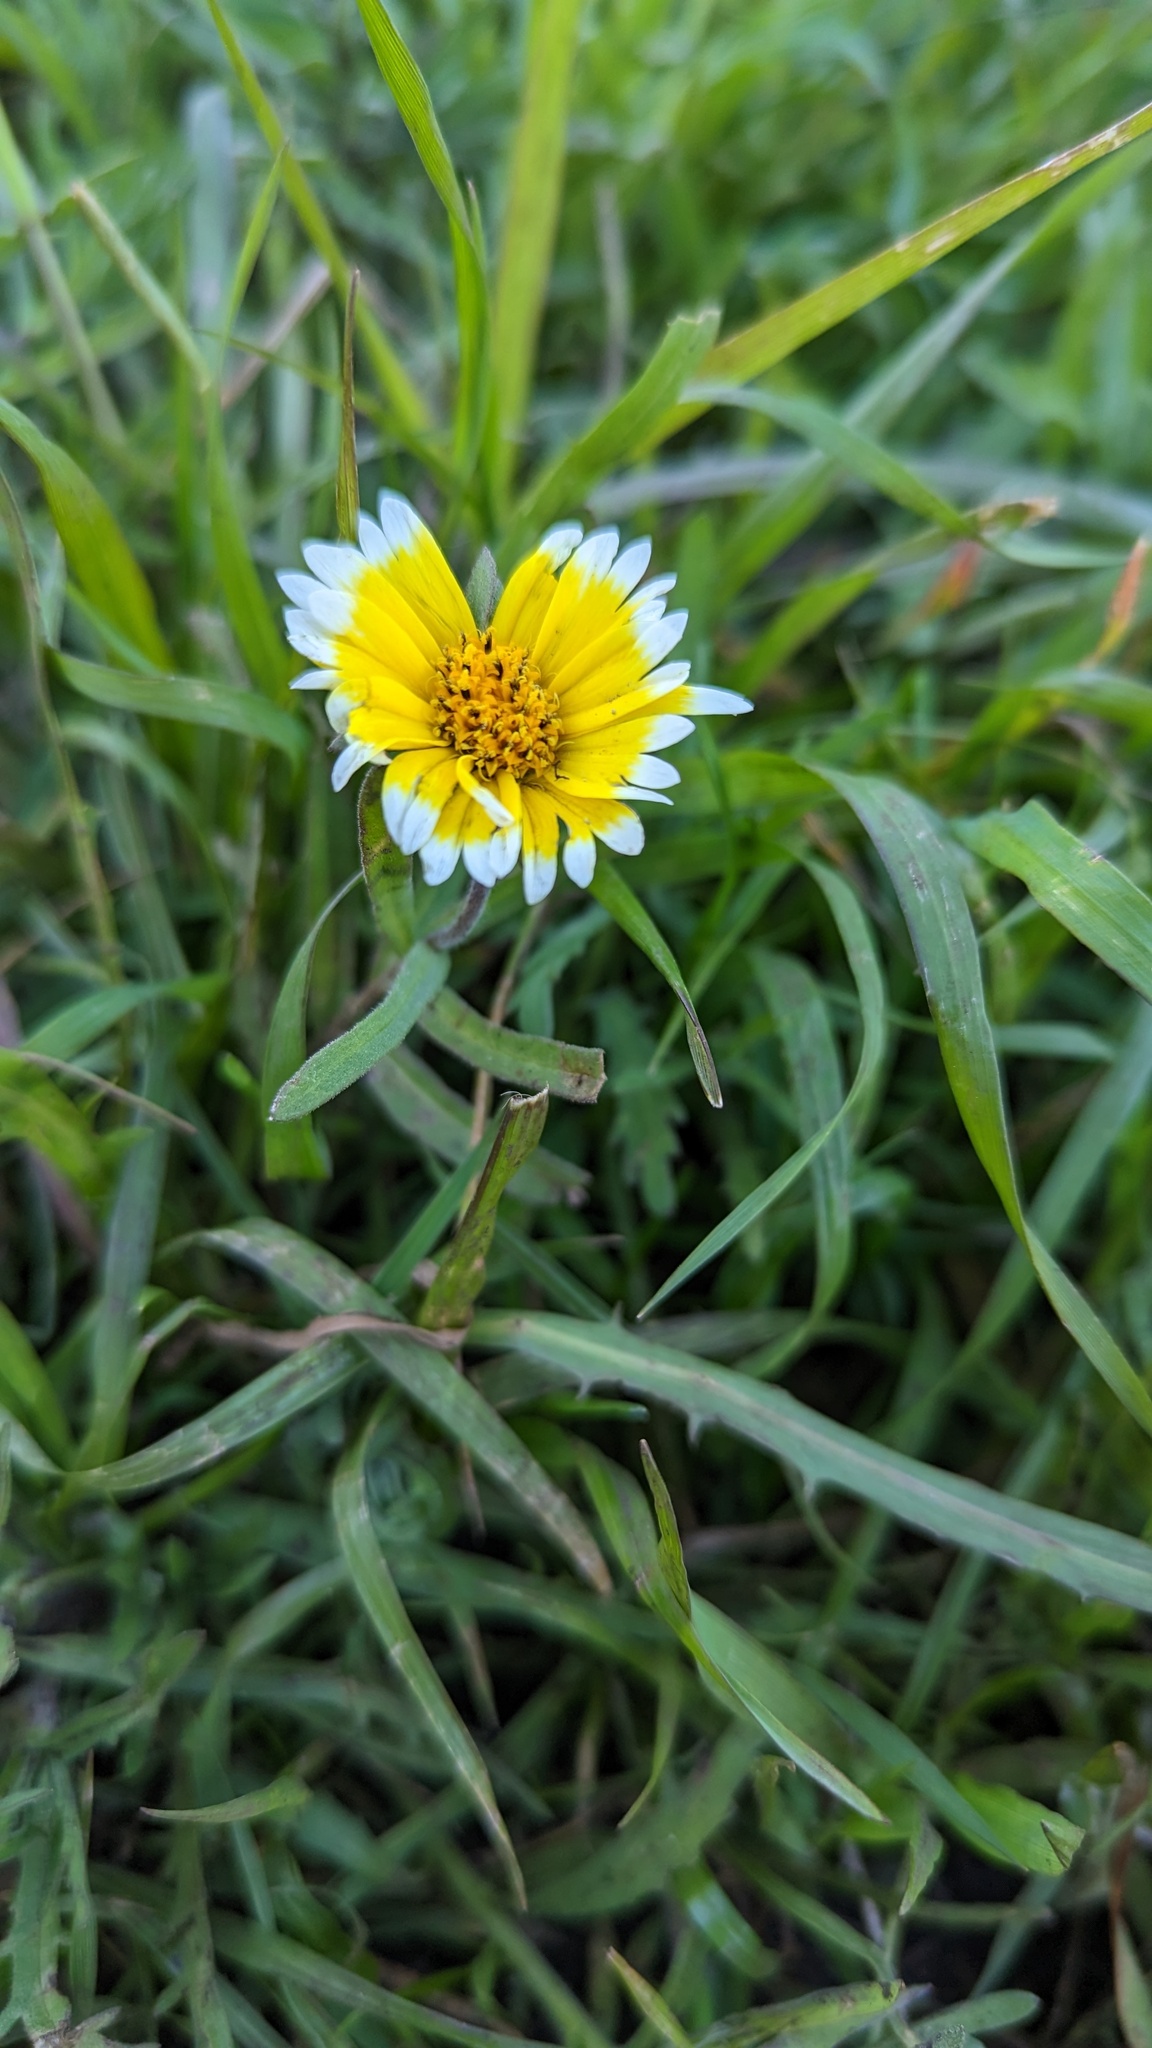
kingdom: Plantae
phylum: Tracheophyta
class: Magnoliopsida
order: Asterales
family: Asteraceae
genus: Layia
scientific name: Layia platyglossa
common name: Tidy-tips
